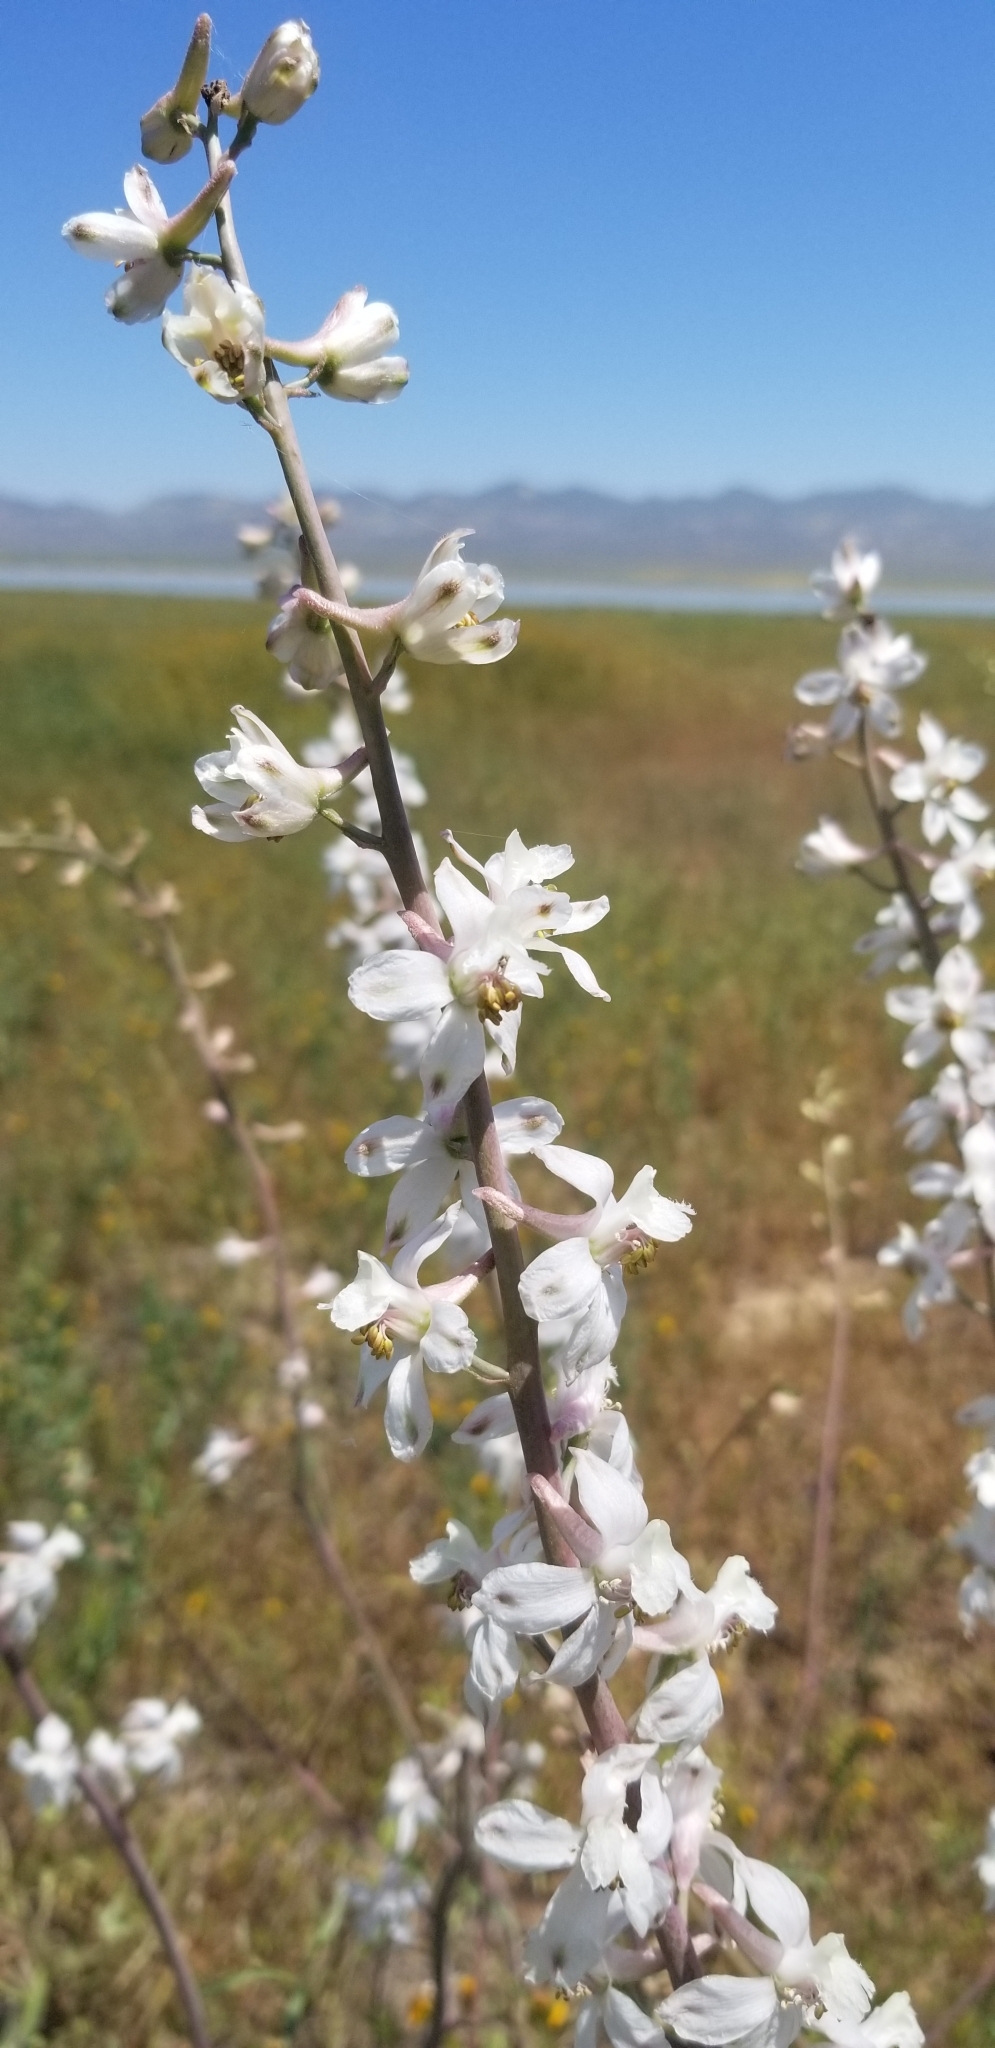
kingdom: Plantae
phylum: Tracheophyta
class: Magnoliopsida
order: Ranunculales
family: Ranunculaceae
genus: Delphinium
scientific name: Delphinium gypsophilum
